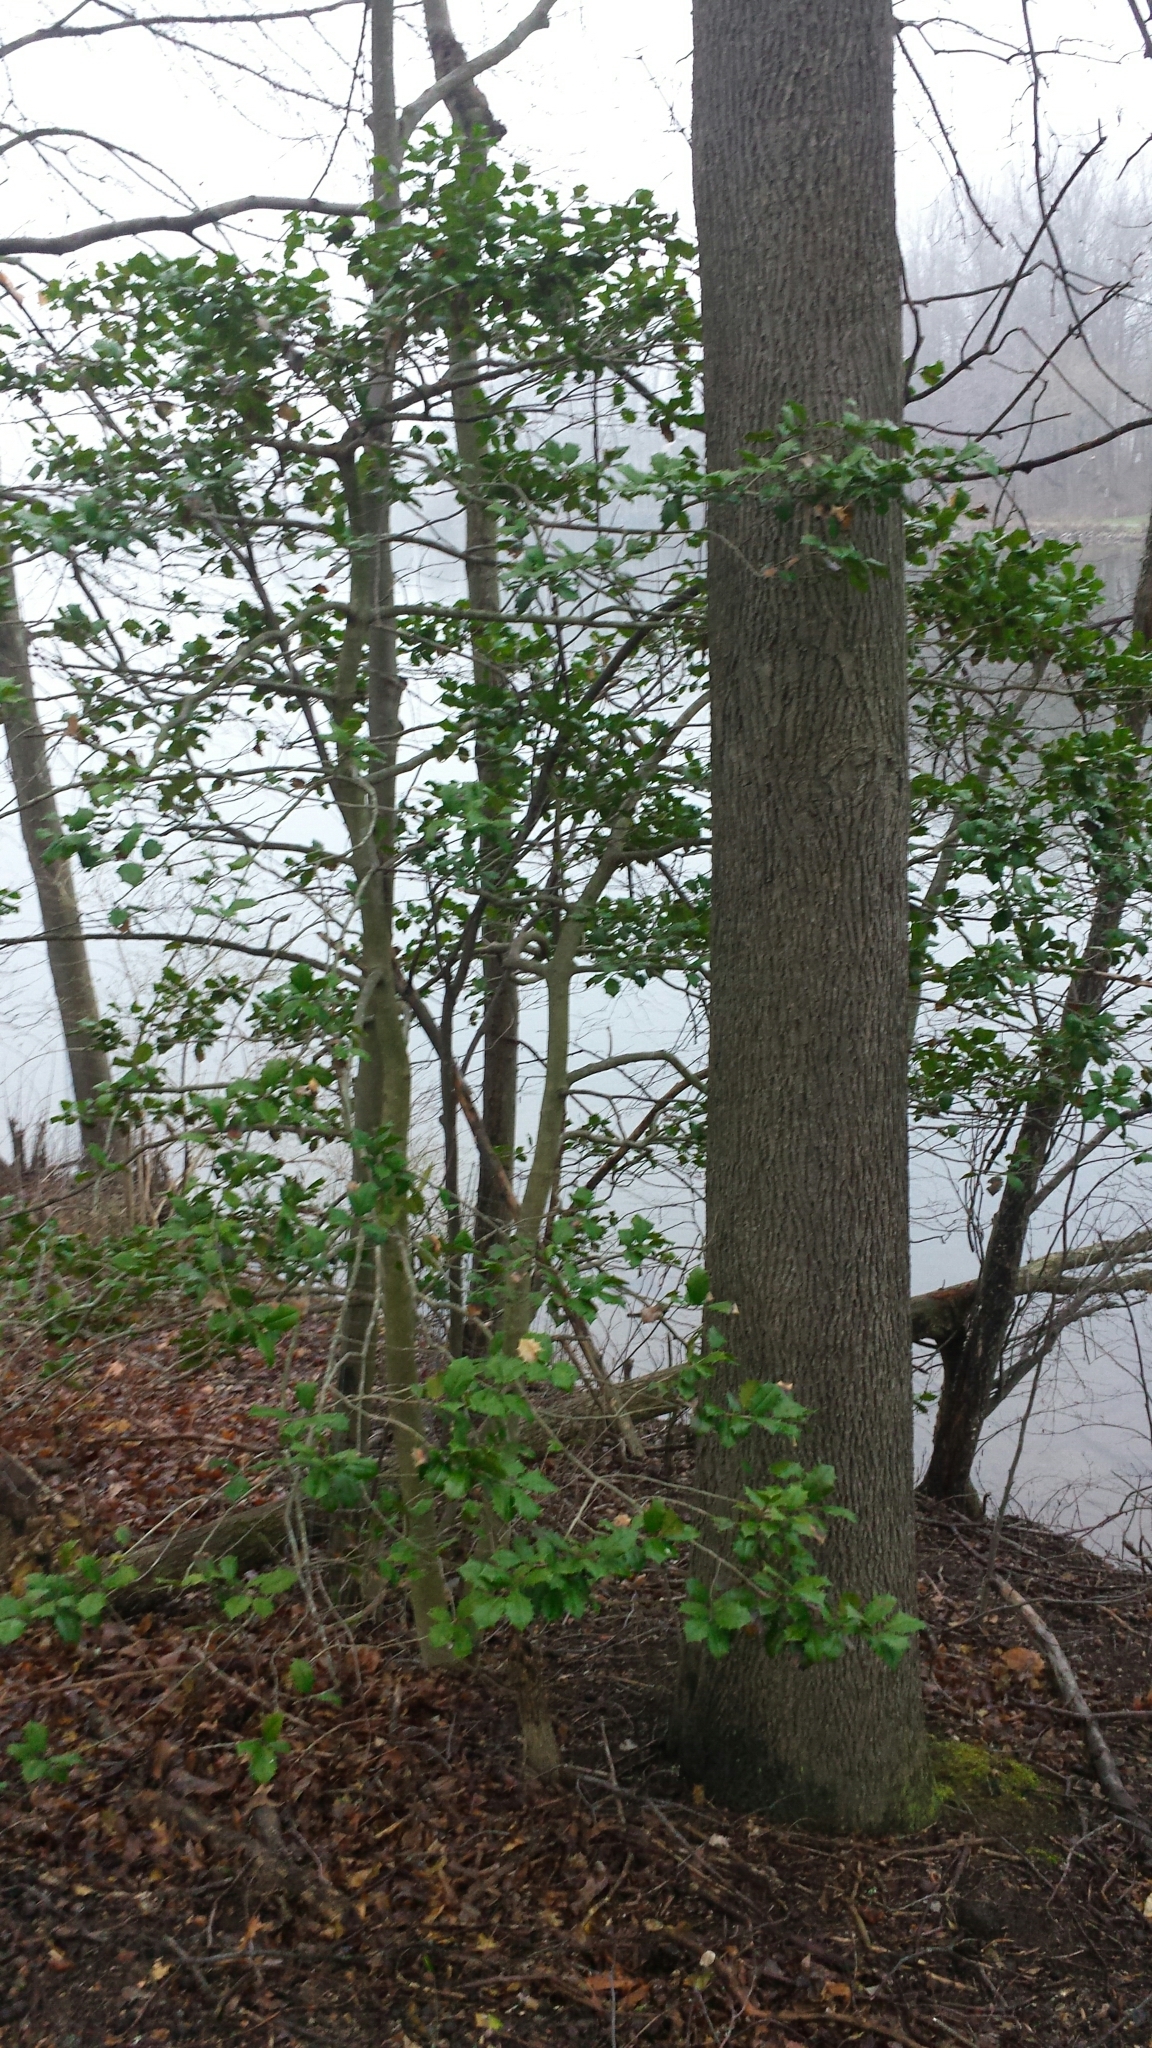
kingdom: Plantae
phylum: Tracheophyta
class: Magnoliopsida
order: Aquifoliales
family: Aquifoliaceae
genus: Ilex
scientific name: Ilex opaca
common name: American holly
